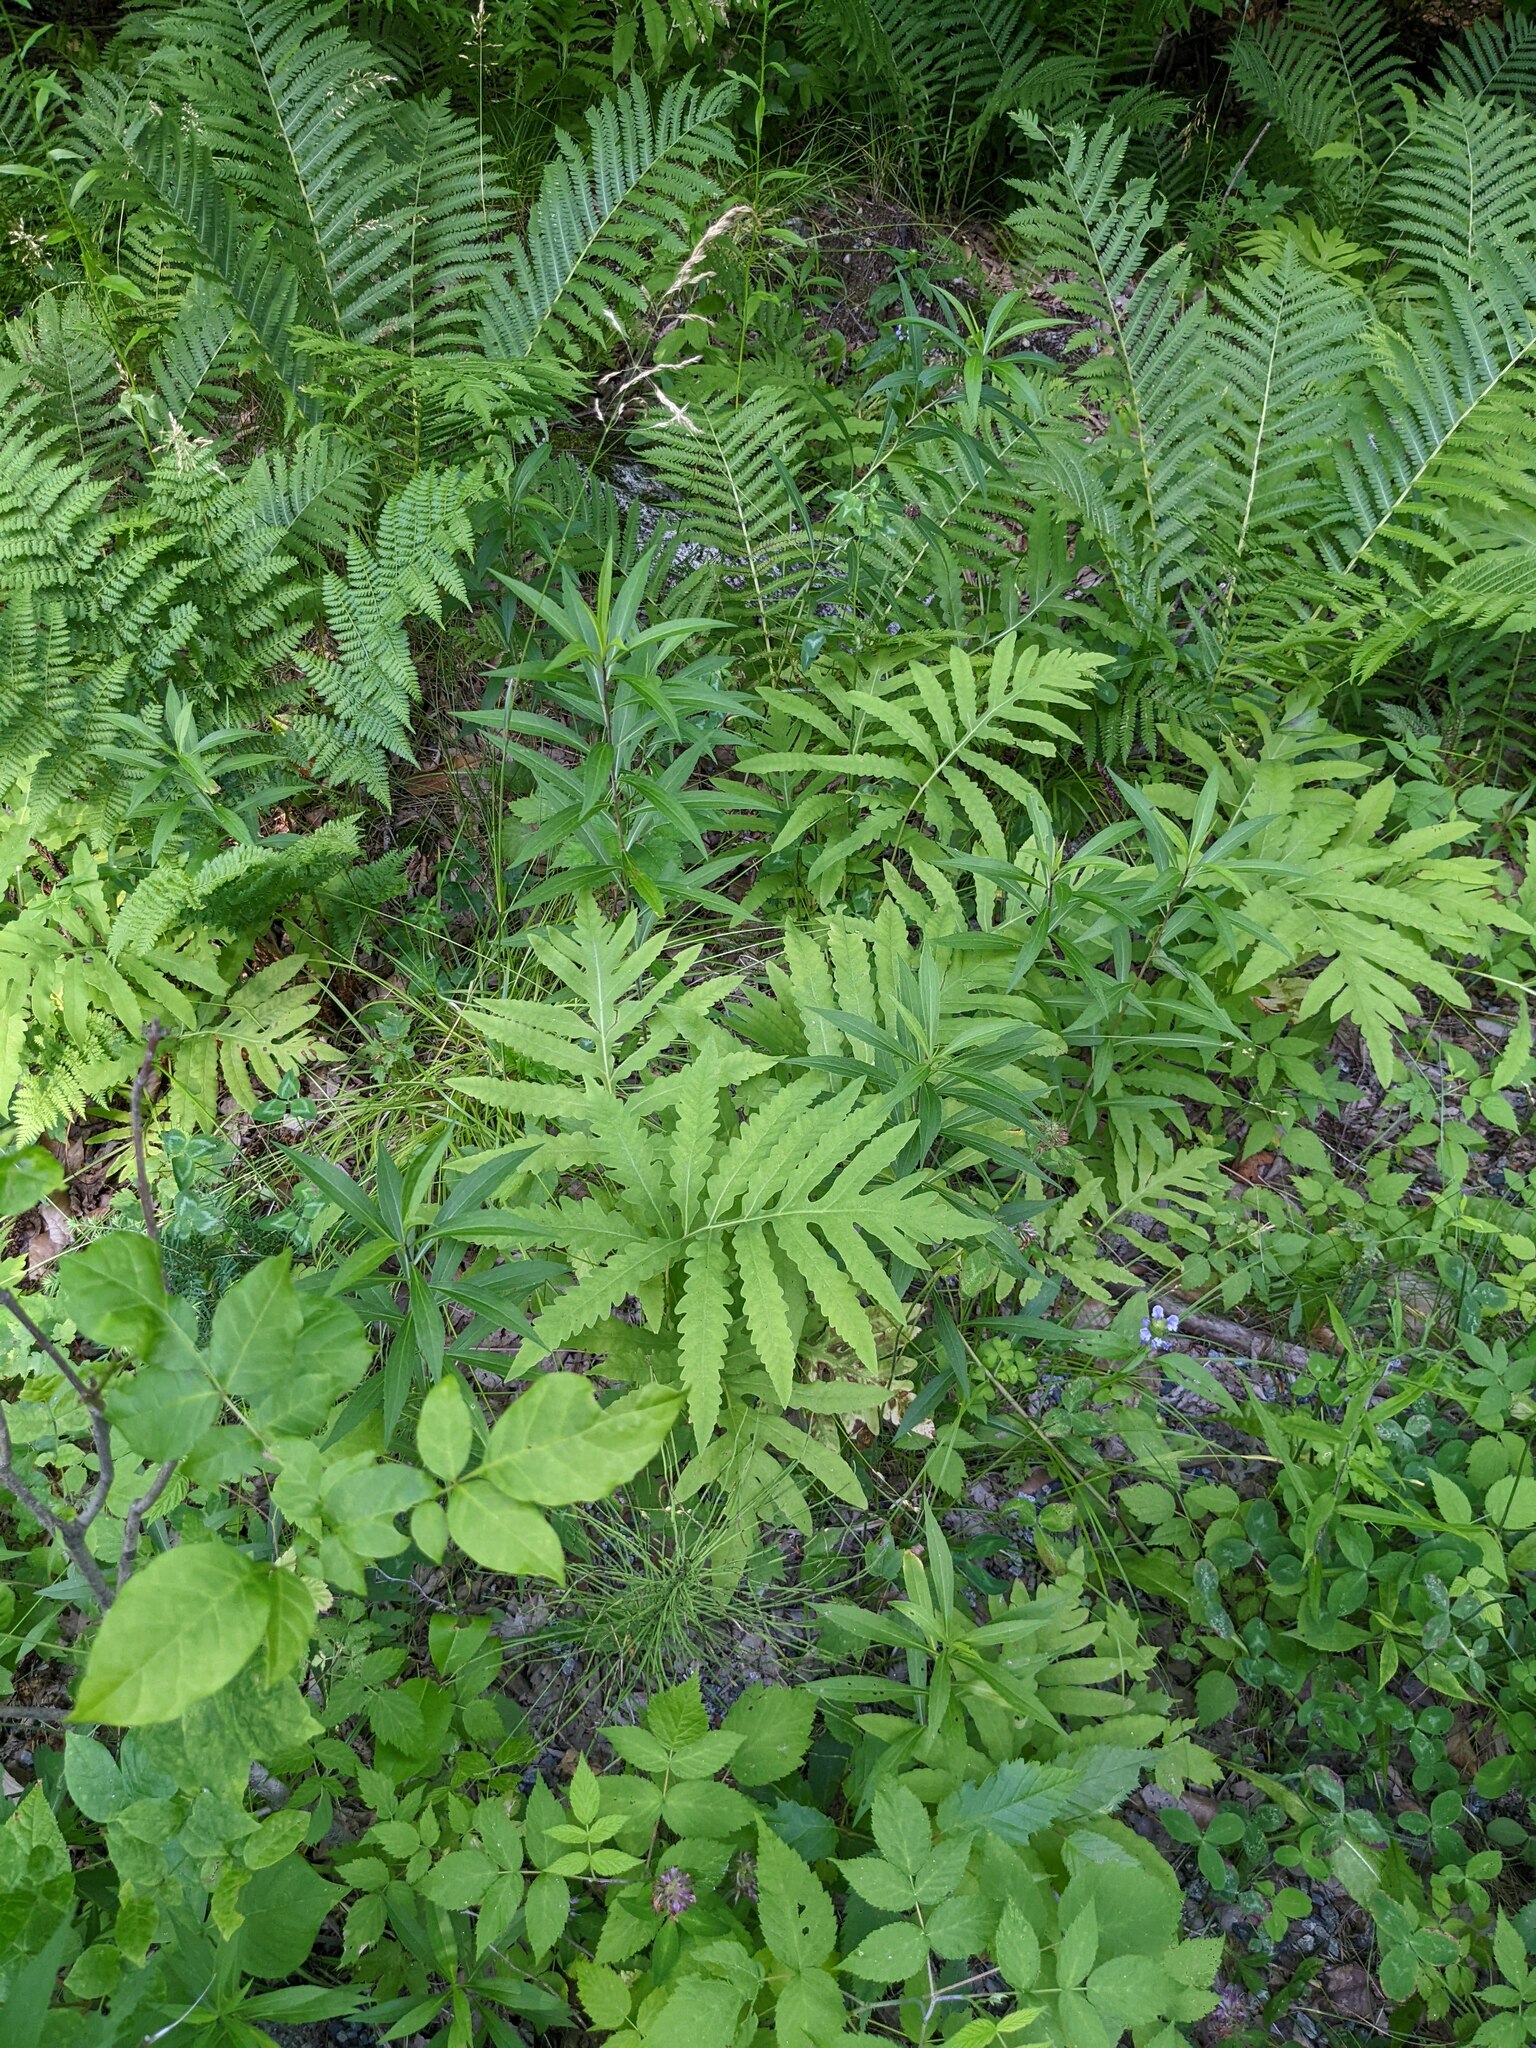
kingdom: Plantae
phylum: Tracheophyta
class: Polypodiopsida
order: Polypodiales
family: Onocleaceae
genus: Onoclea
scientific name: Onoclea sensibilis
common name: Sensitive fern
